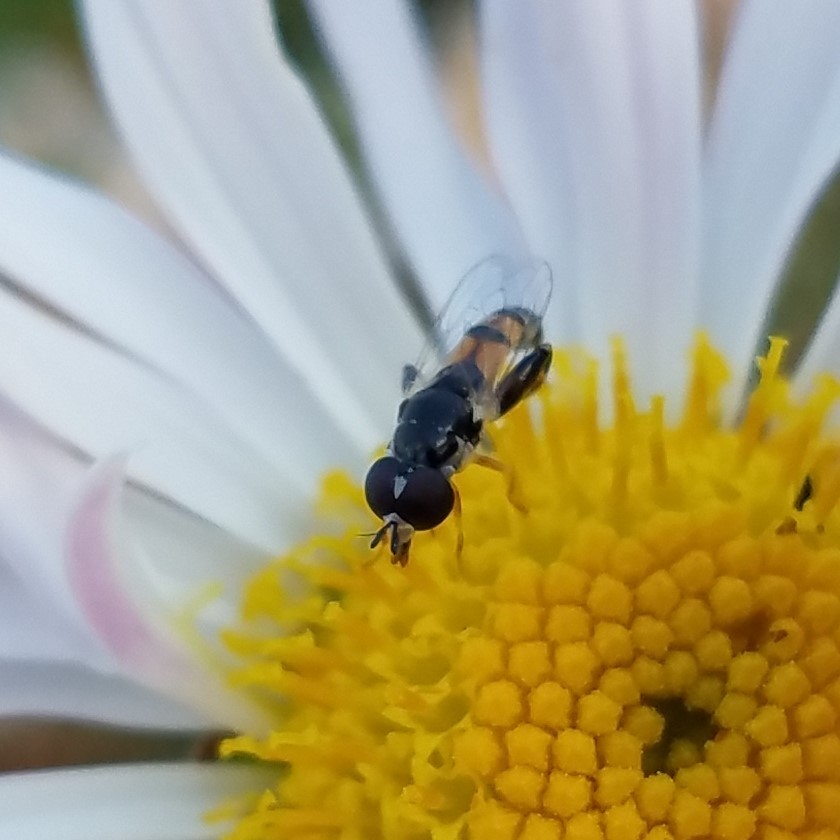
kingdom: Animalia
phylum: Arthropoda
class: Insecta
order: Diptera
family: Syrphidae
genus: Syritta
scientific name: Syritta flaviventris
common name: Syrphid fly
